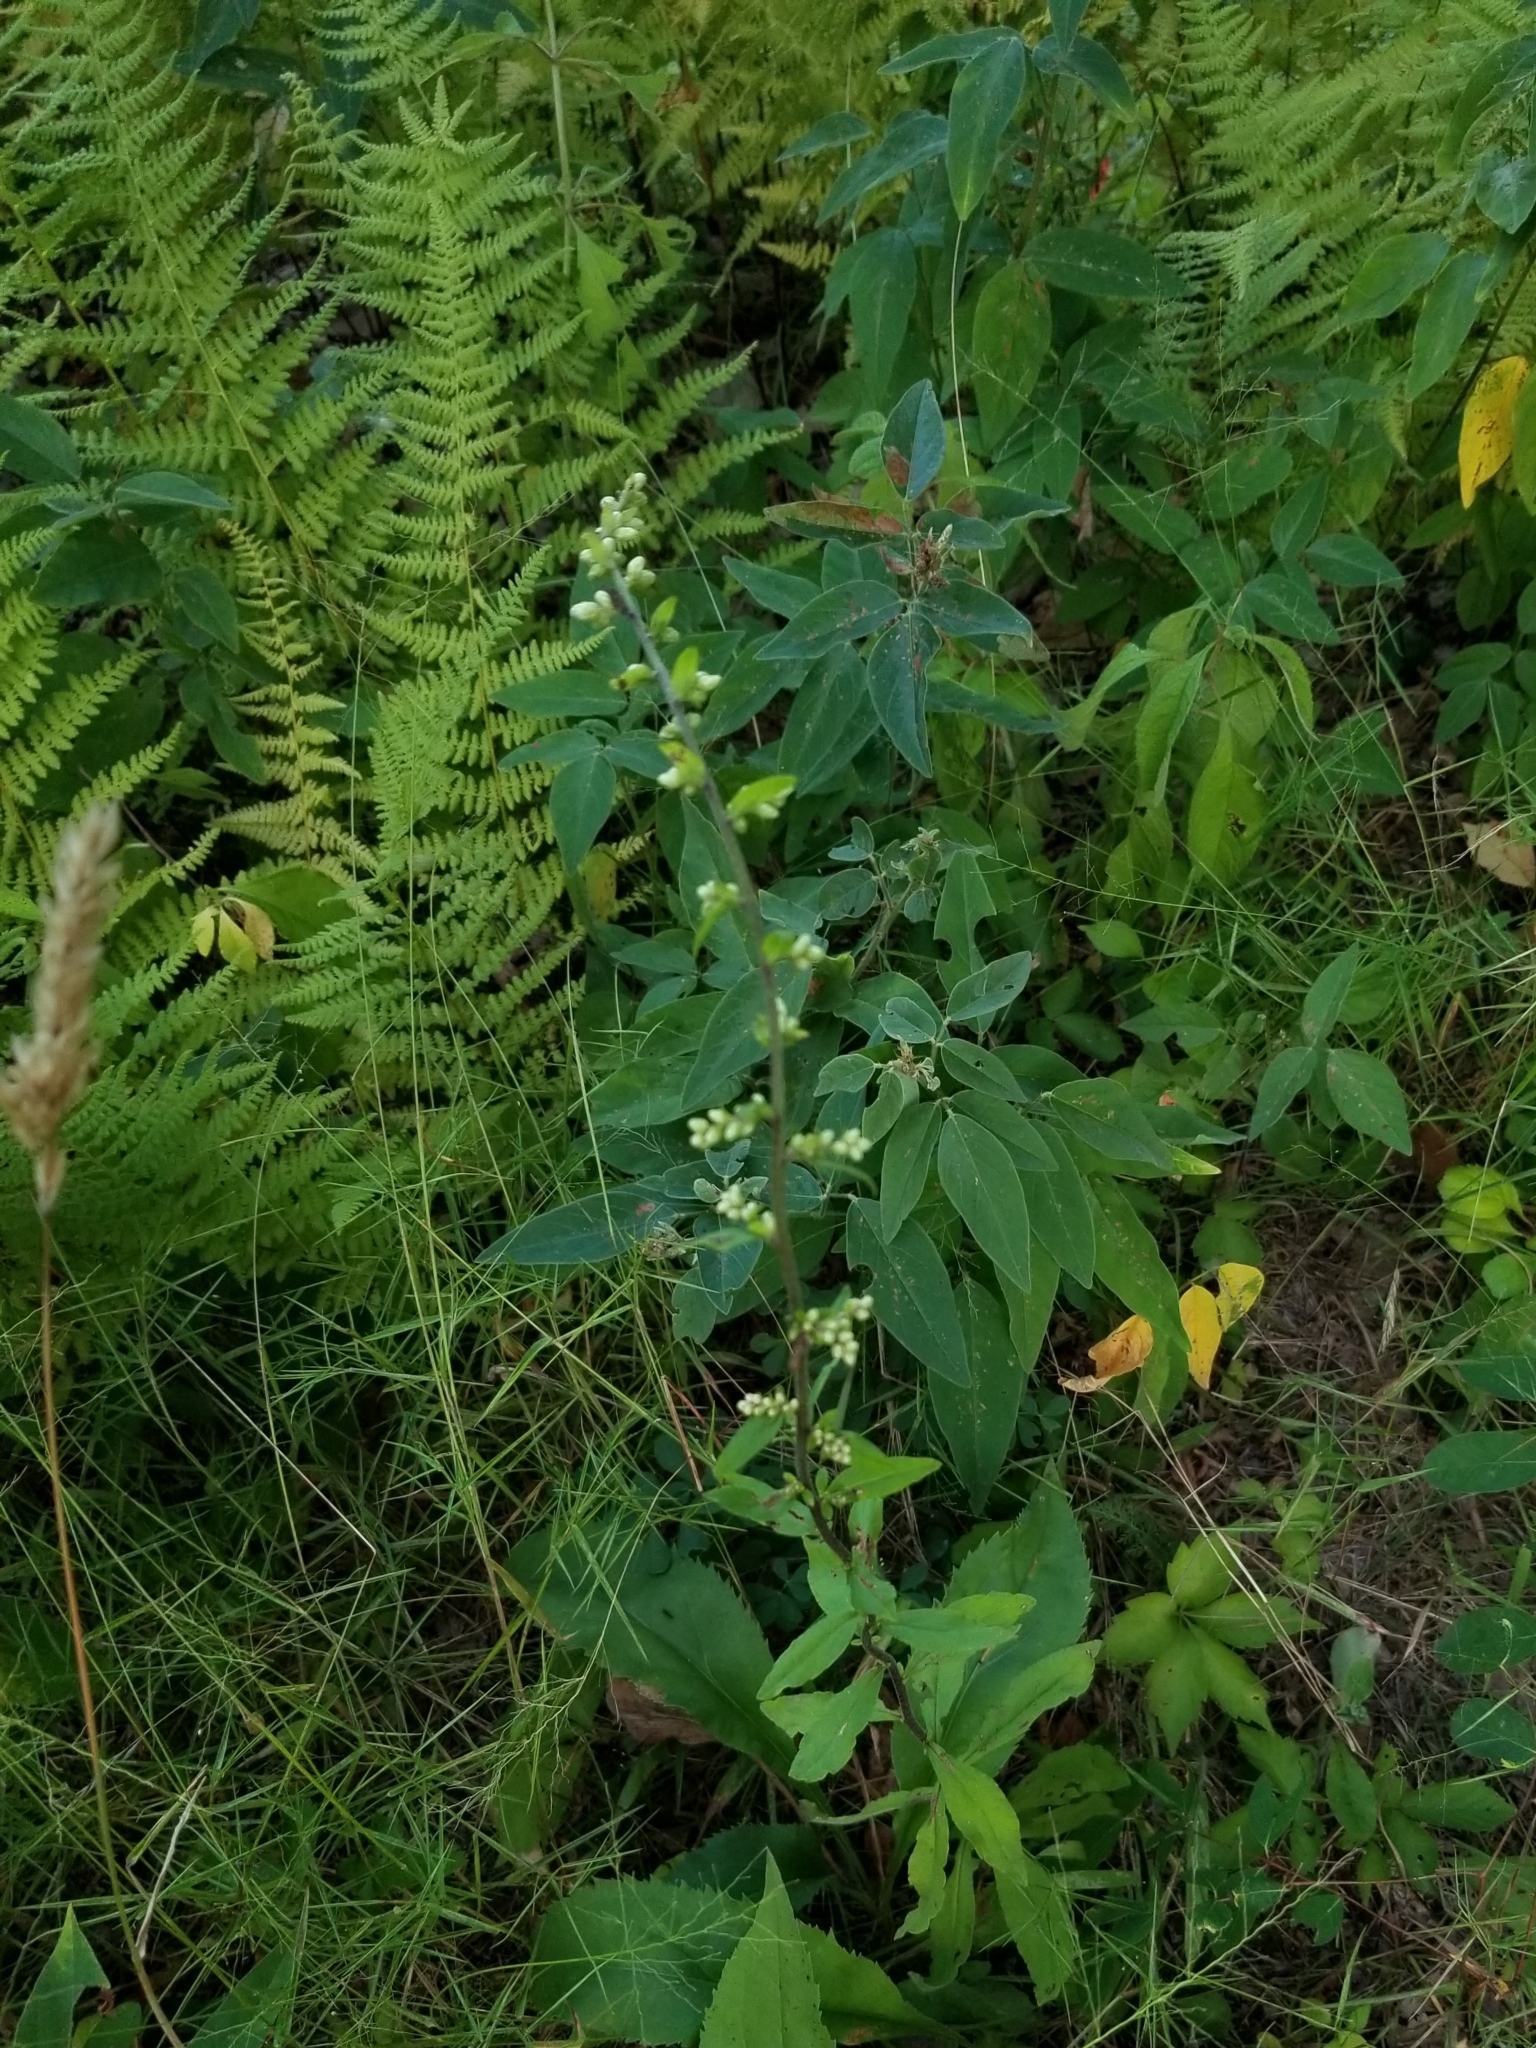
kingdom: Plantae
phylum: Tracheophyta
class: Magnoliopsida
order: Asterales
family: Asteraceae
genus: Solidago
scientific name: Solidago bicolor
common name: Silverrod
